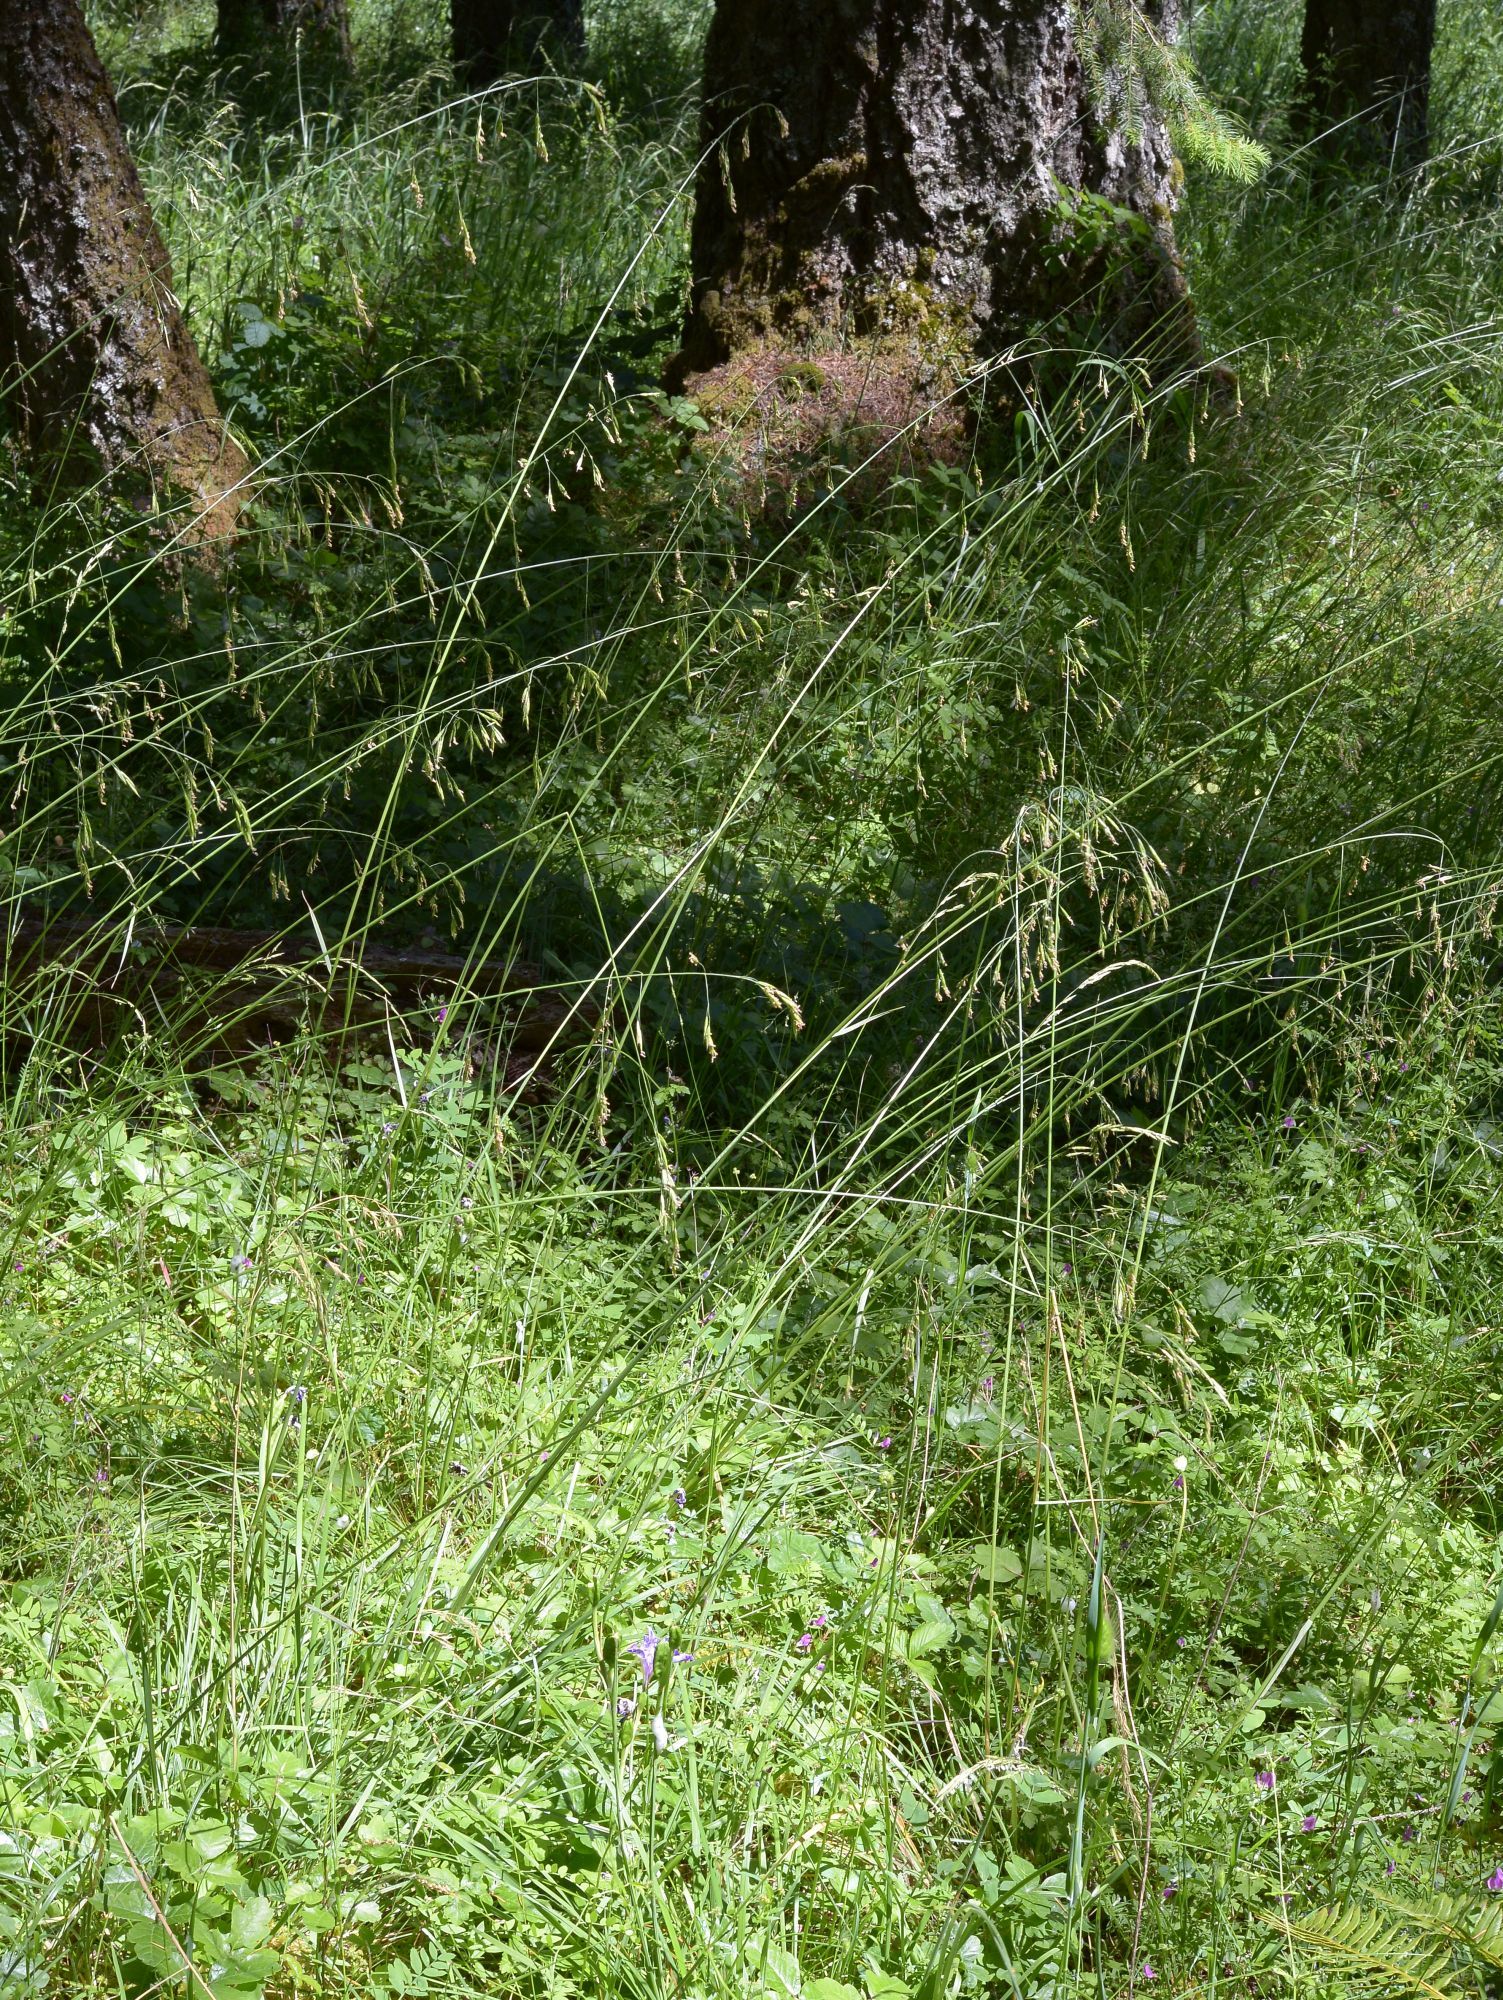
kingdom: Plantae
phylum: Tracheophyta
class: Liliopsida
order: Poales
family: Poaceae
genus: Festuca
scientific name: Festuca californica
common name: California fescue
